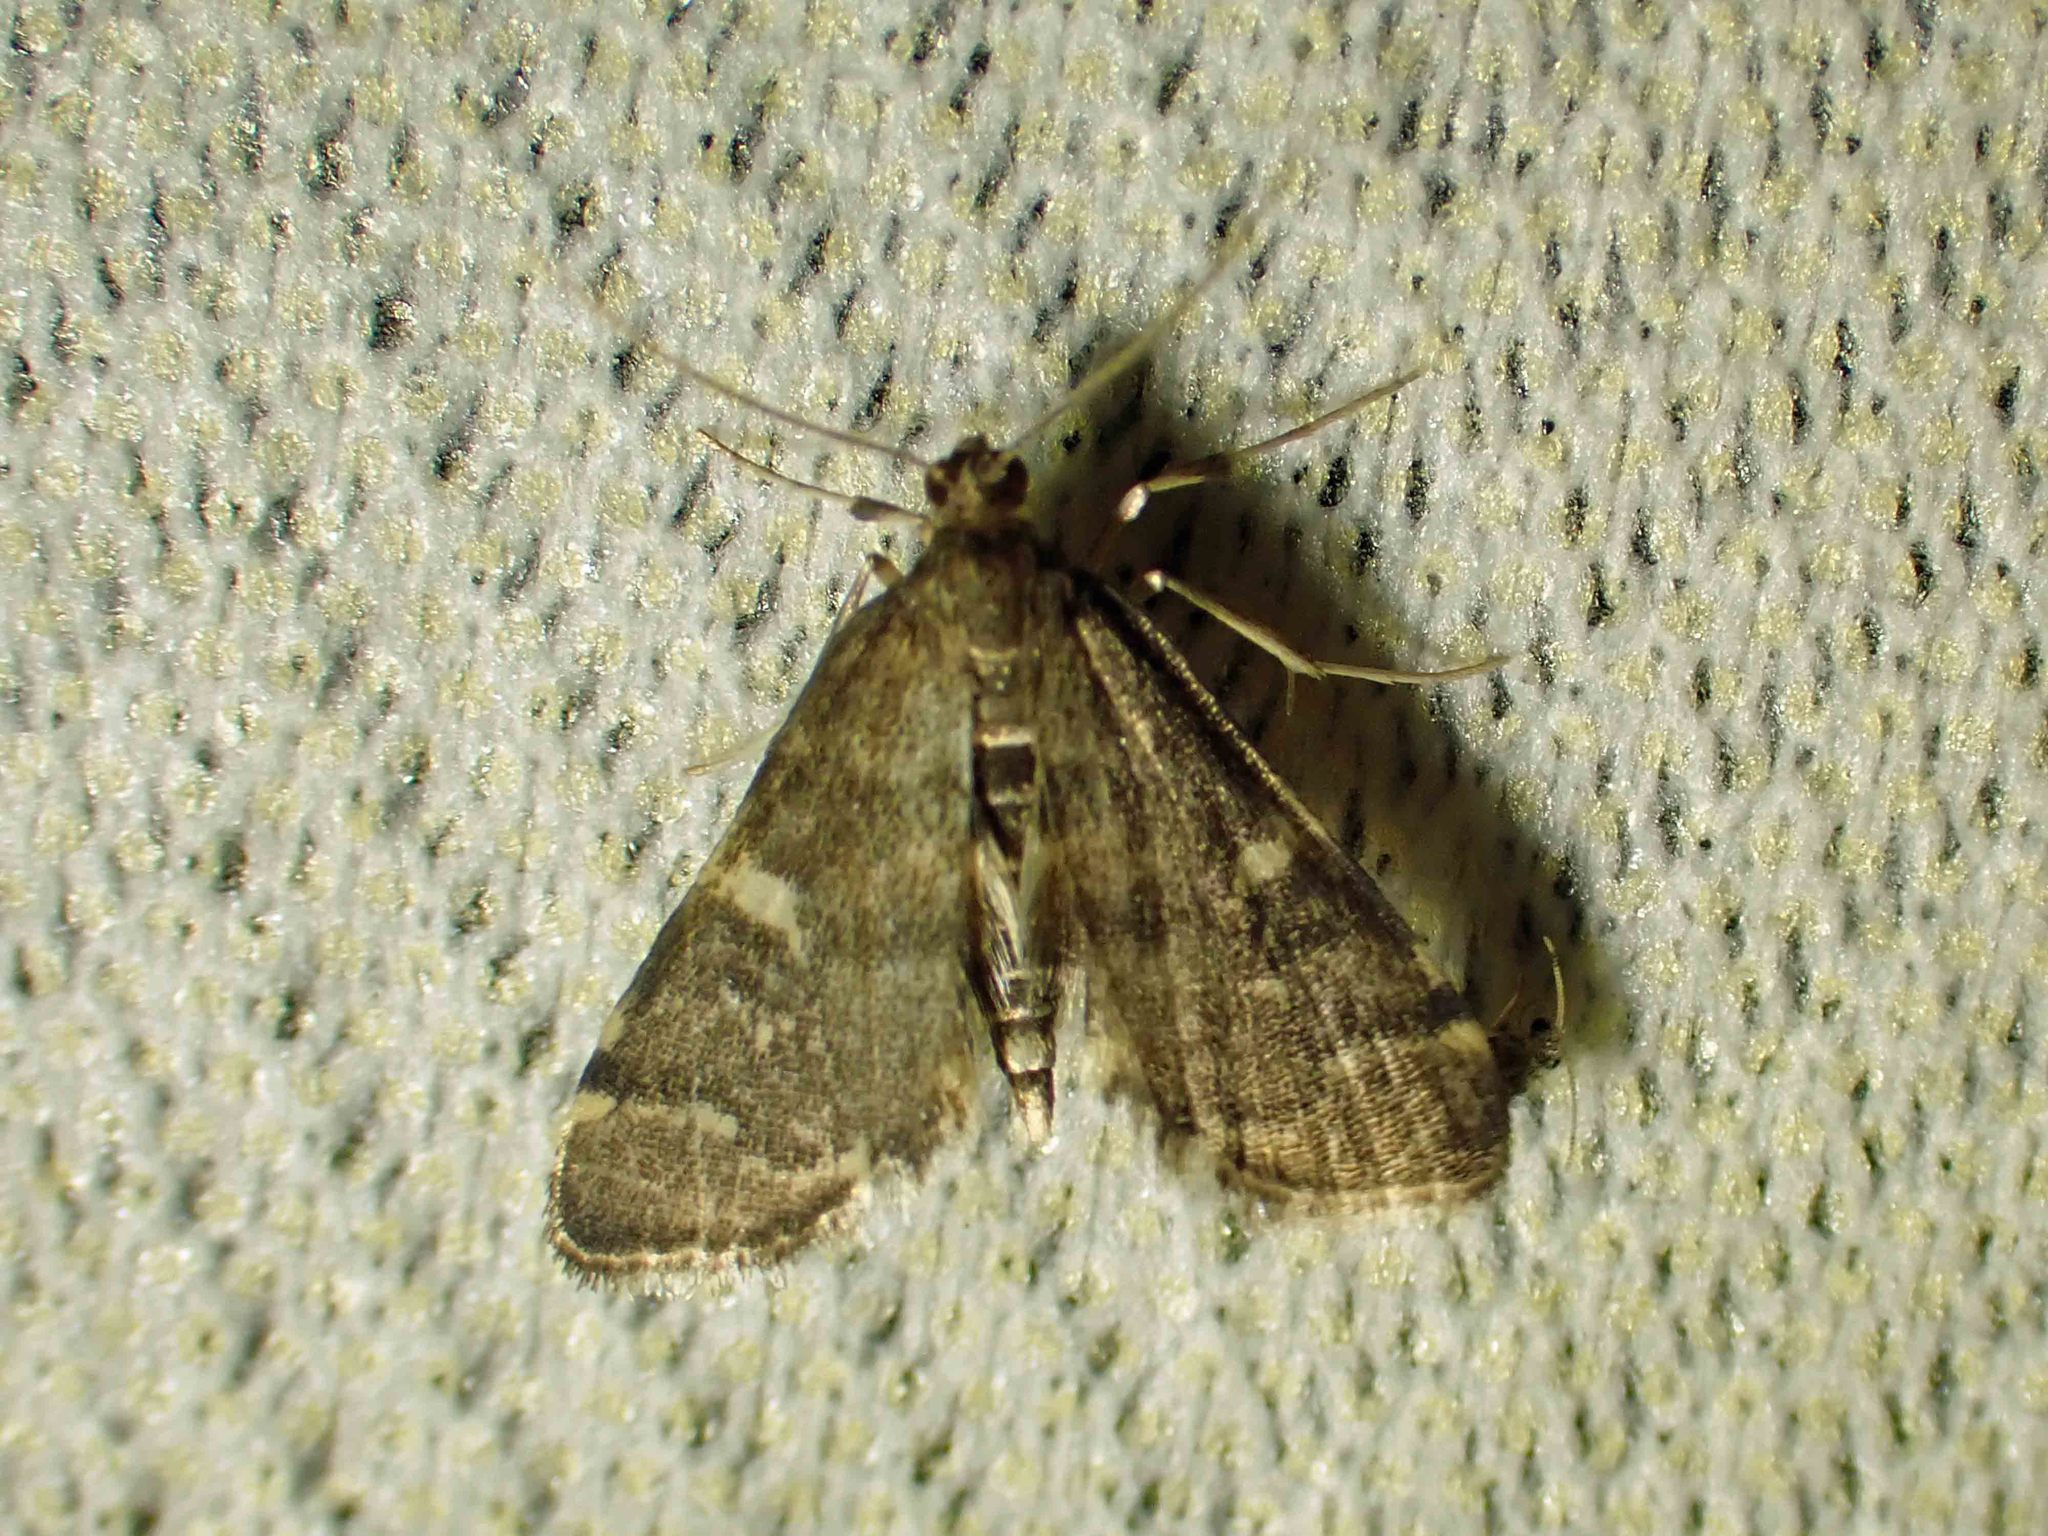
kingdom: Animalia
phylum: Arthropoda
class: Insecta
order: Lepidoptera
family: Crambidae
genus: Anageshna
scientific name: Anageshna primordialis
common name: Yellow-spotted webworm moth
